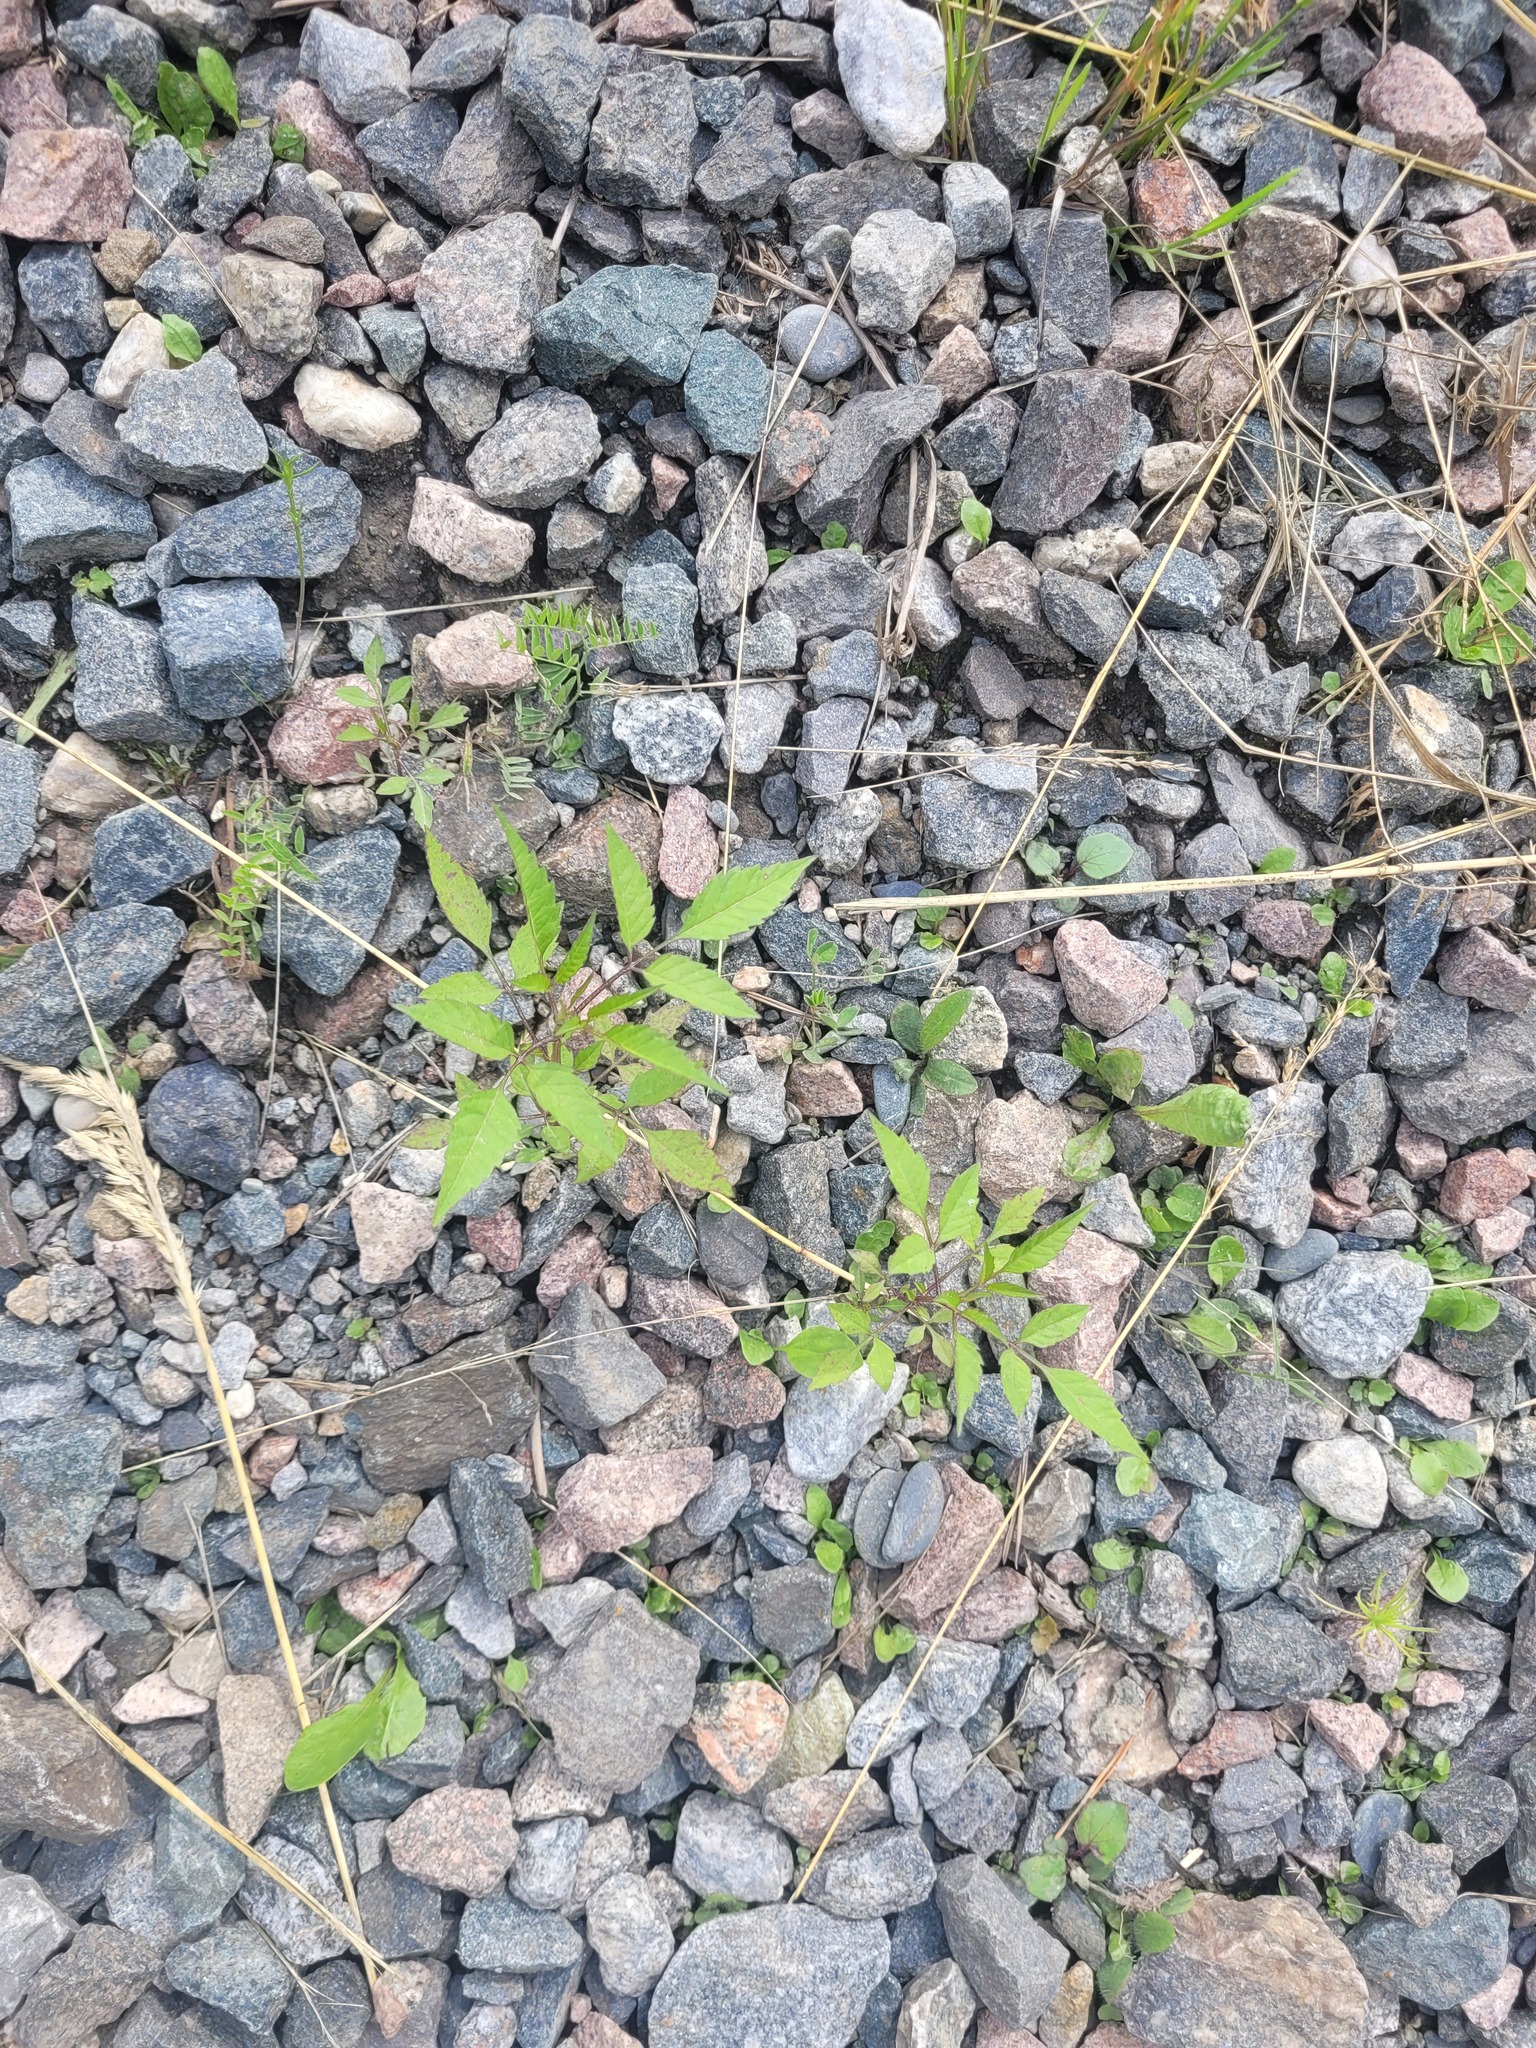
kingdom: Plantae
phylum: Tracheophyta
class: Magnoliopsida
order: Asterales
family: Asteraceae
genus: Bidens
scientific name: Bidens frondosa
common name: Beggarticks
